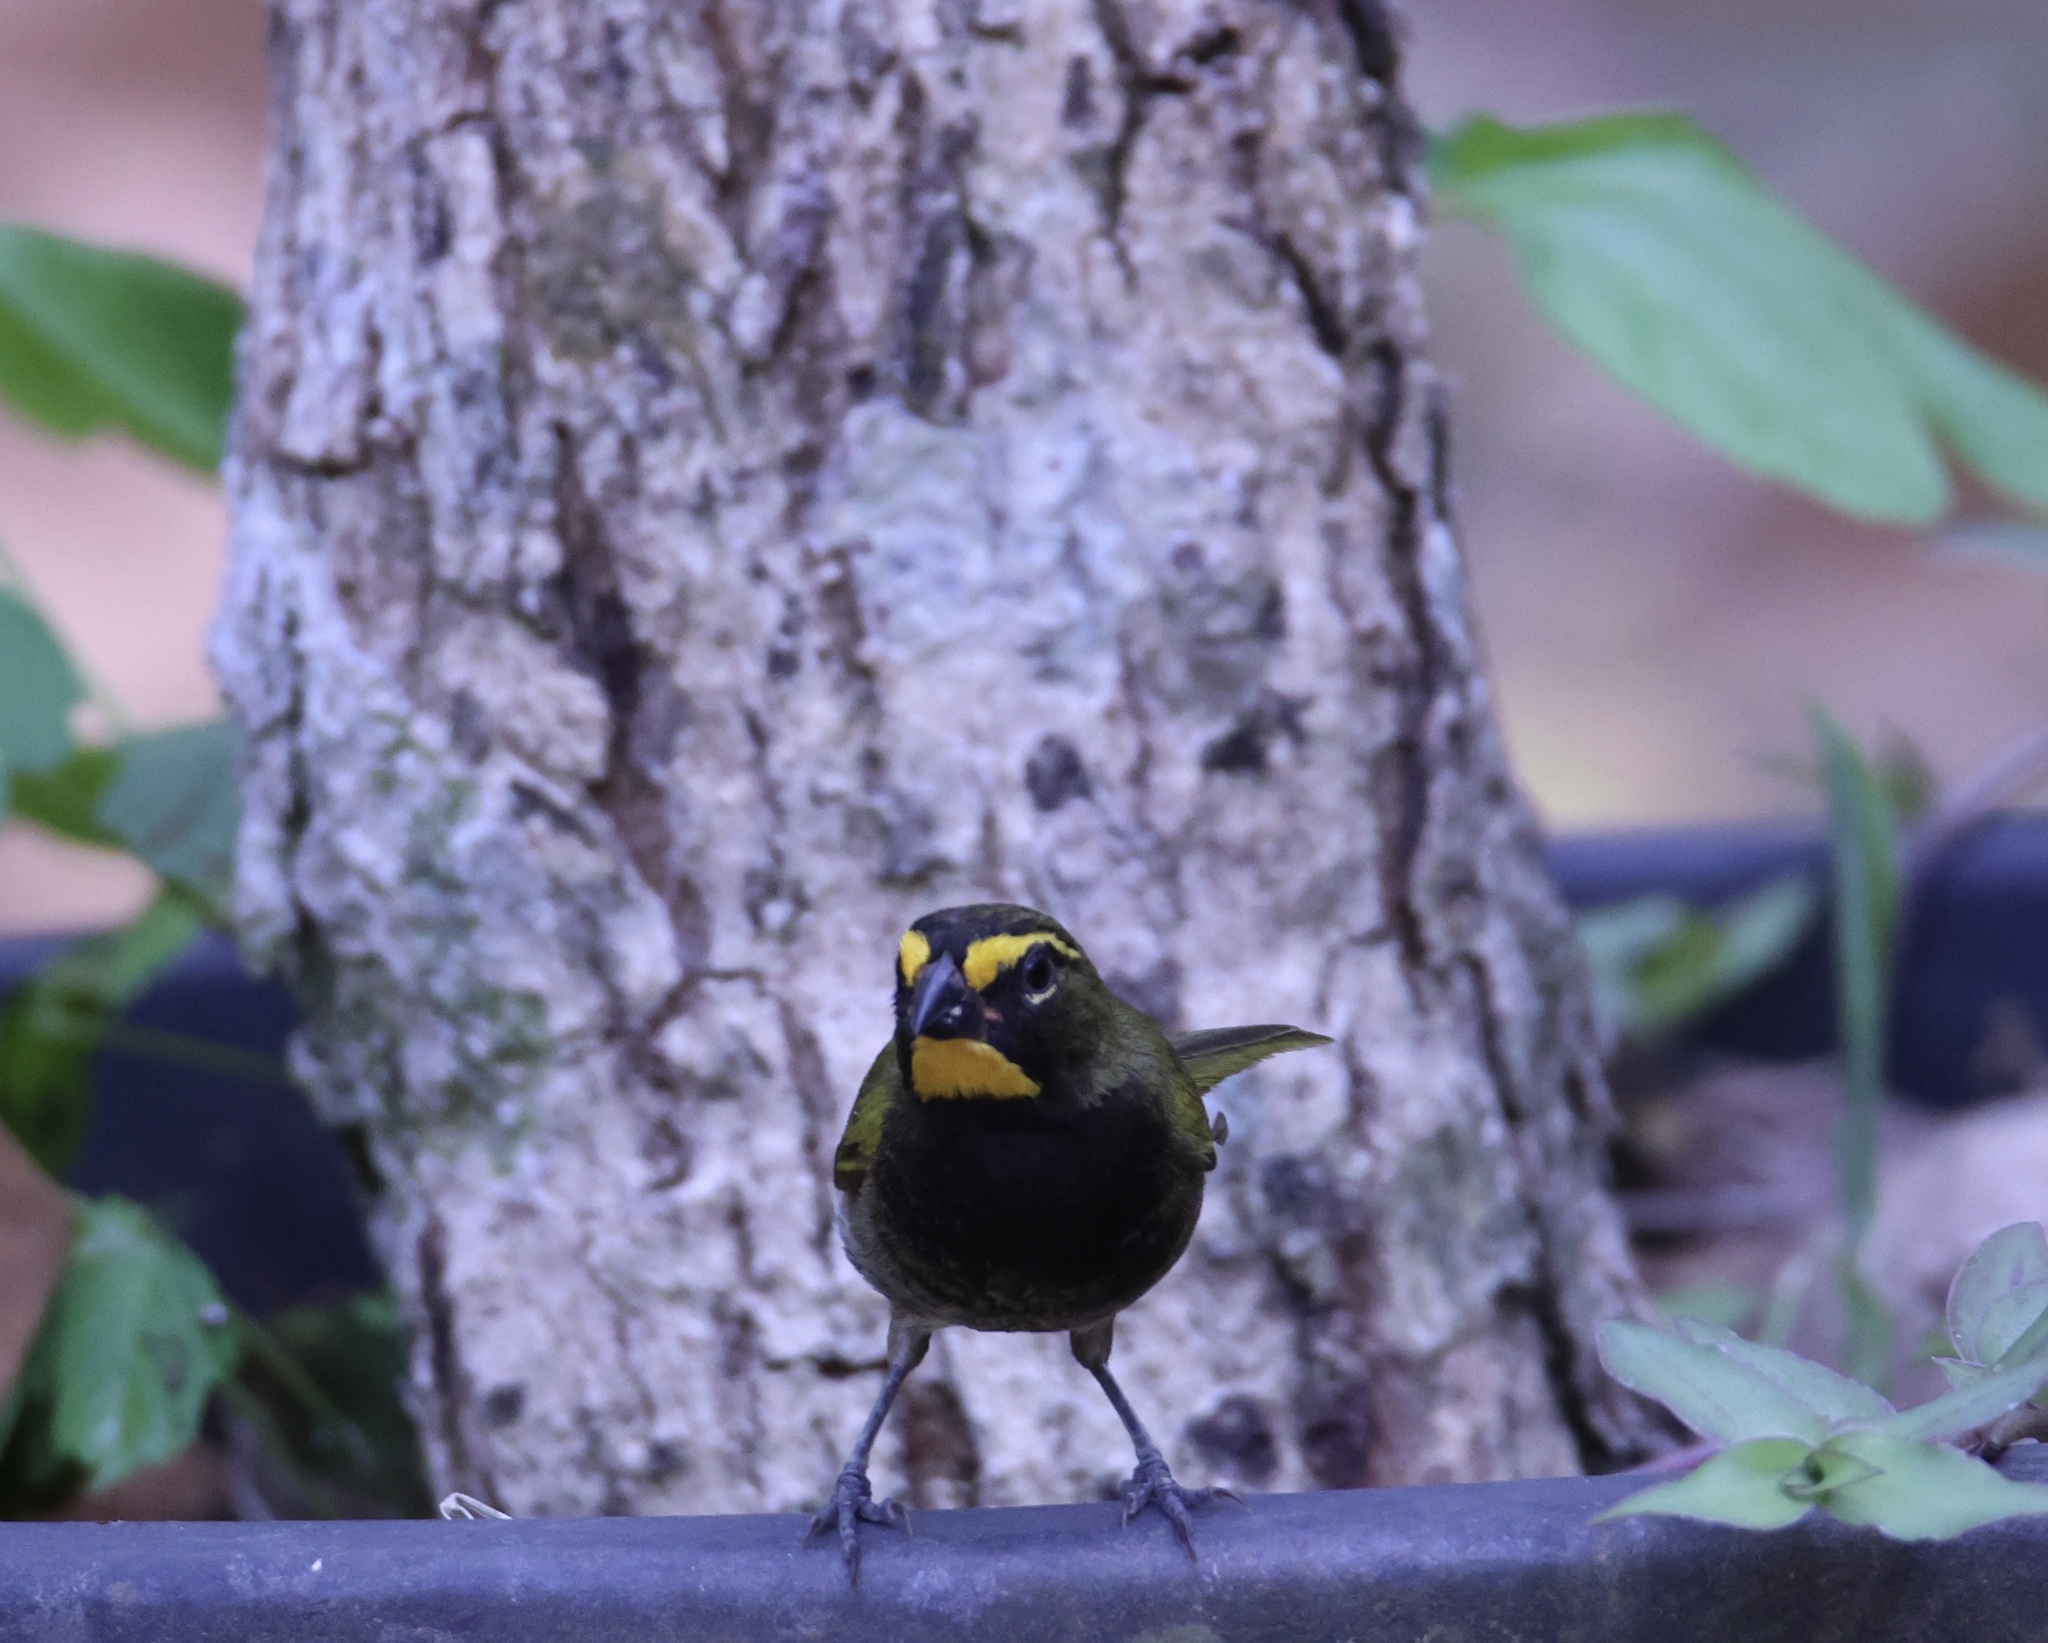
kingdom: Animalia
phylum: Chordata
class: Aves
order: Passeriformes
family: Thraupidae
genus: Tiaris
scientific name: Tiaris olivaceus
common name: Yellow-faced grassquit
